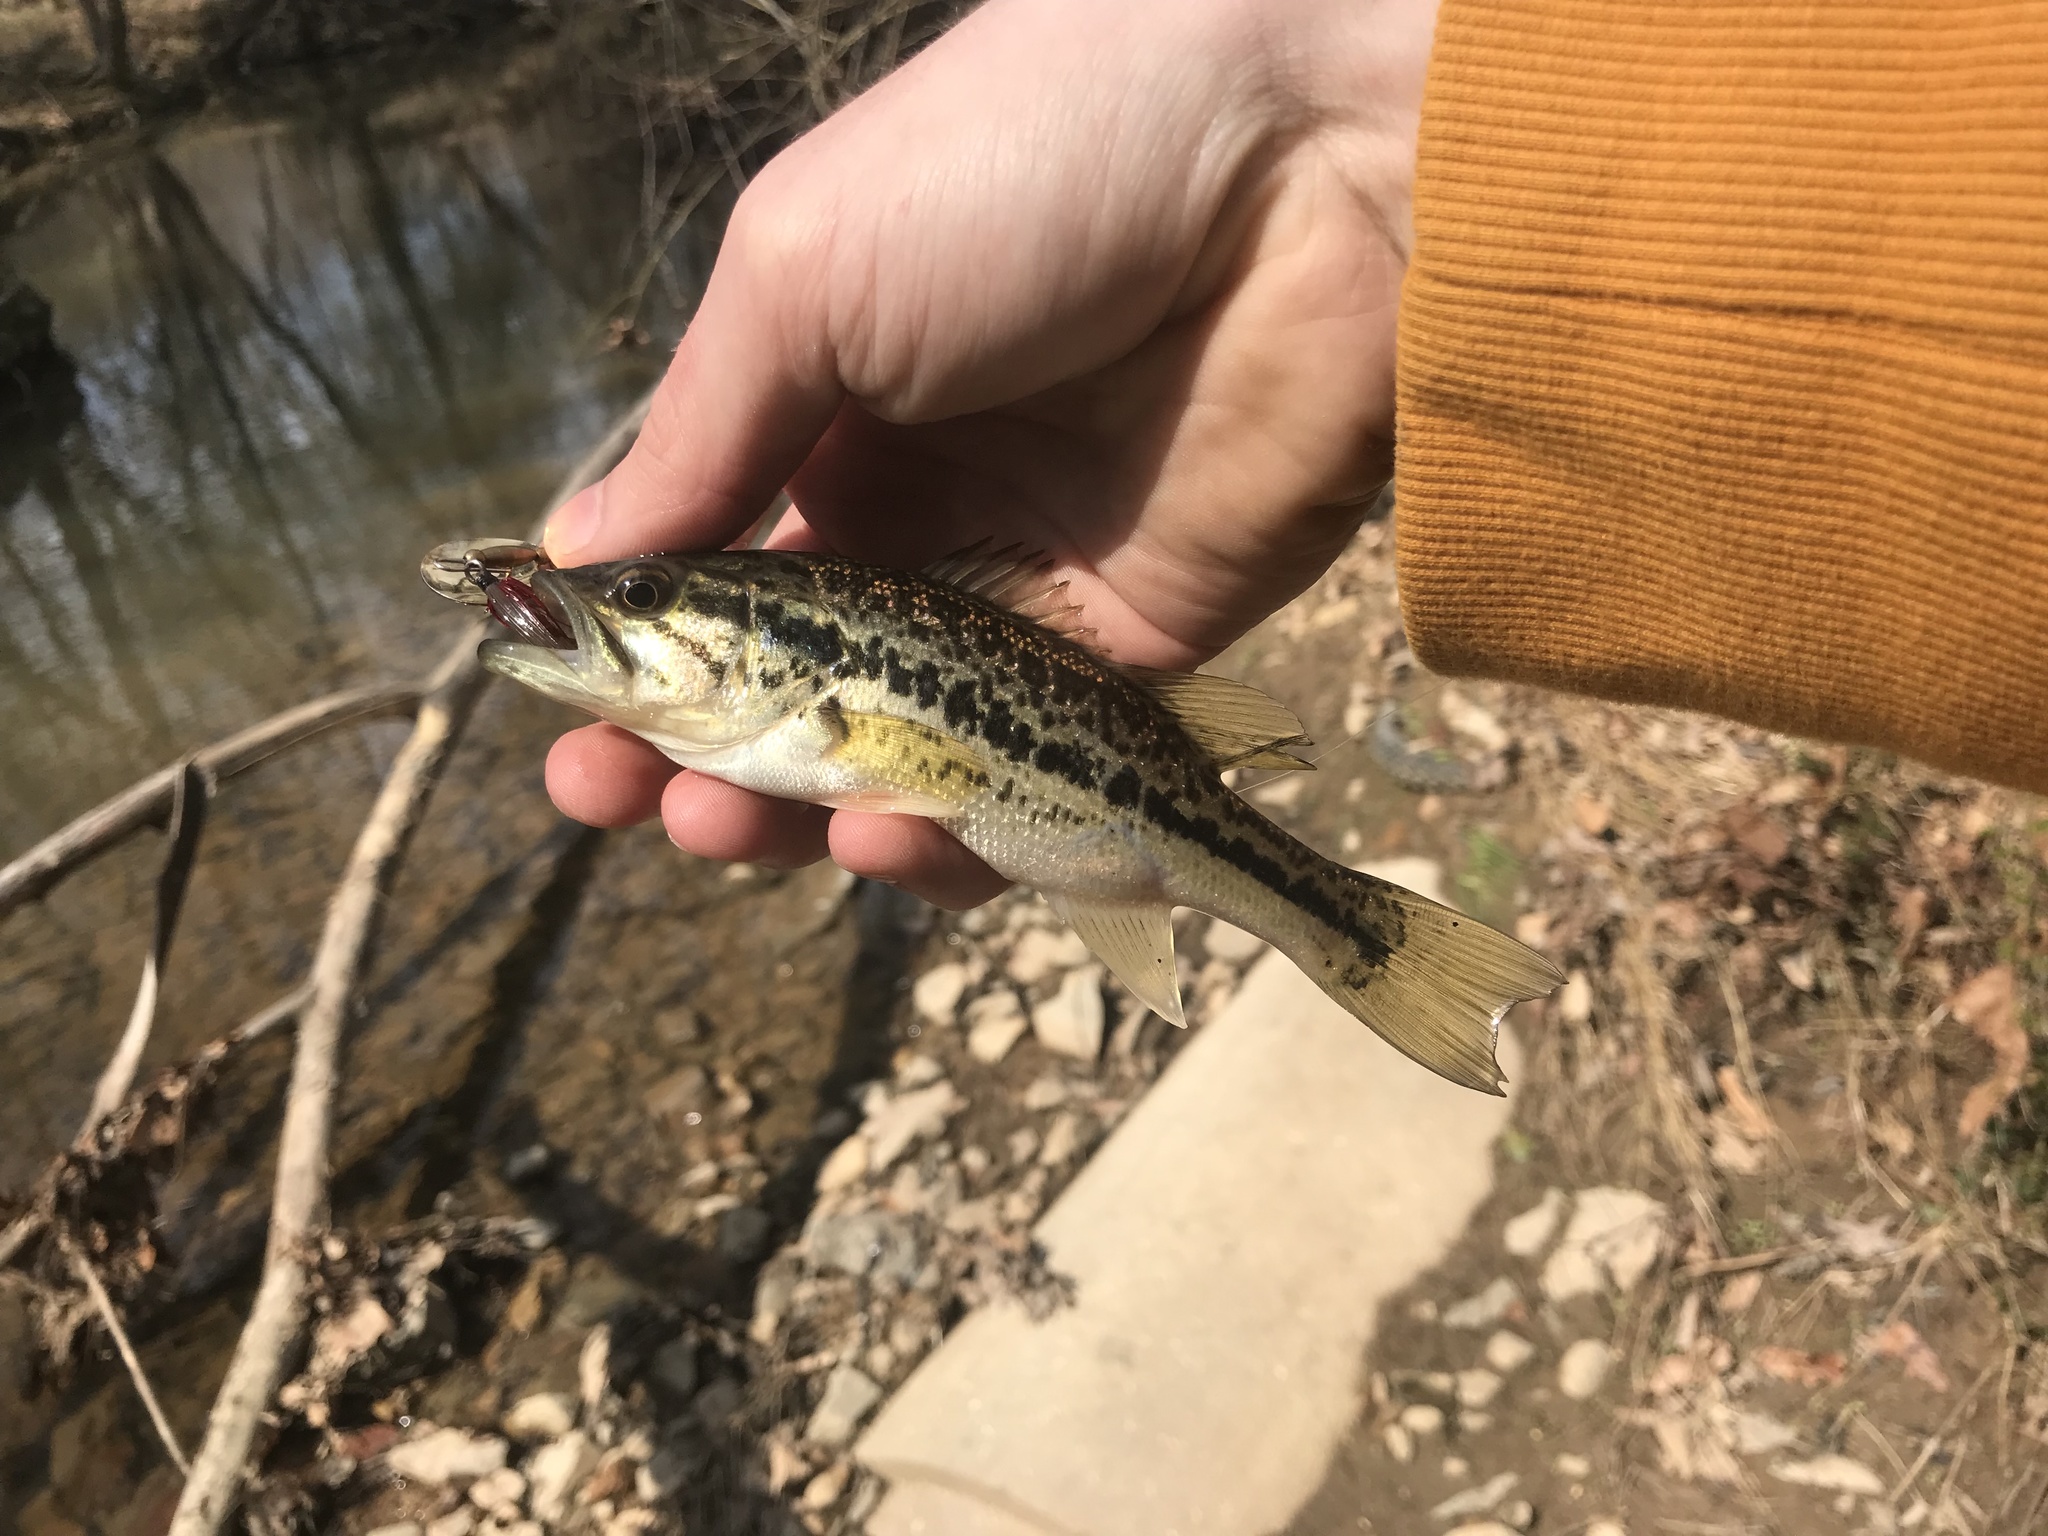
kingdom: Animalia
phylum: Chordata
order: Perciformes
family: Centrarchidae
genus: Micropterus
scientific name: Micropterus
